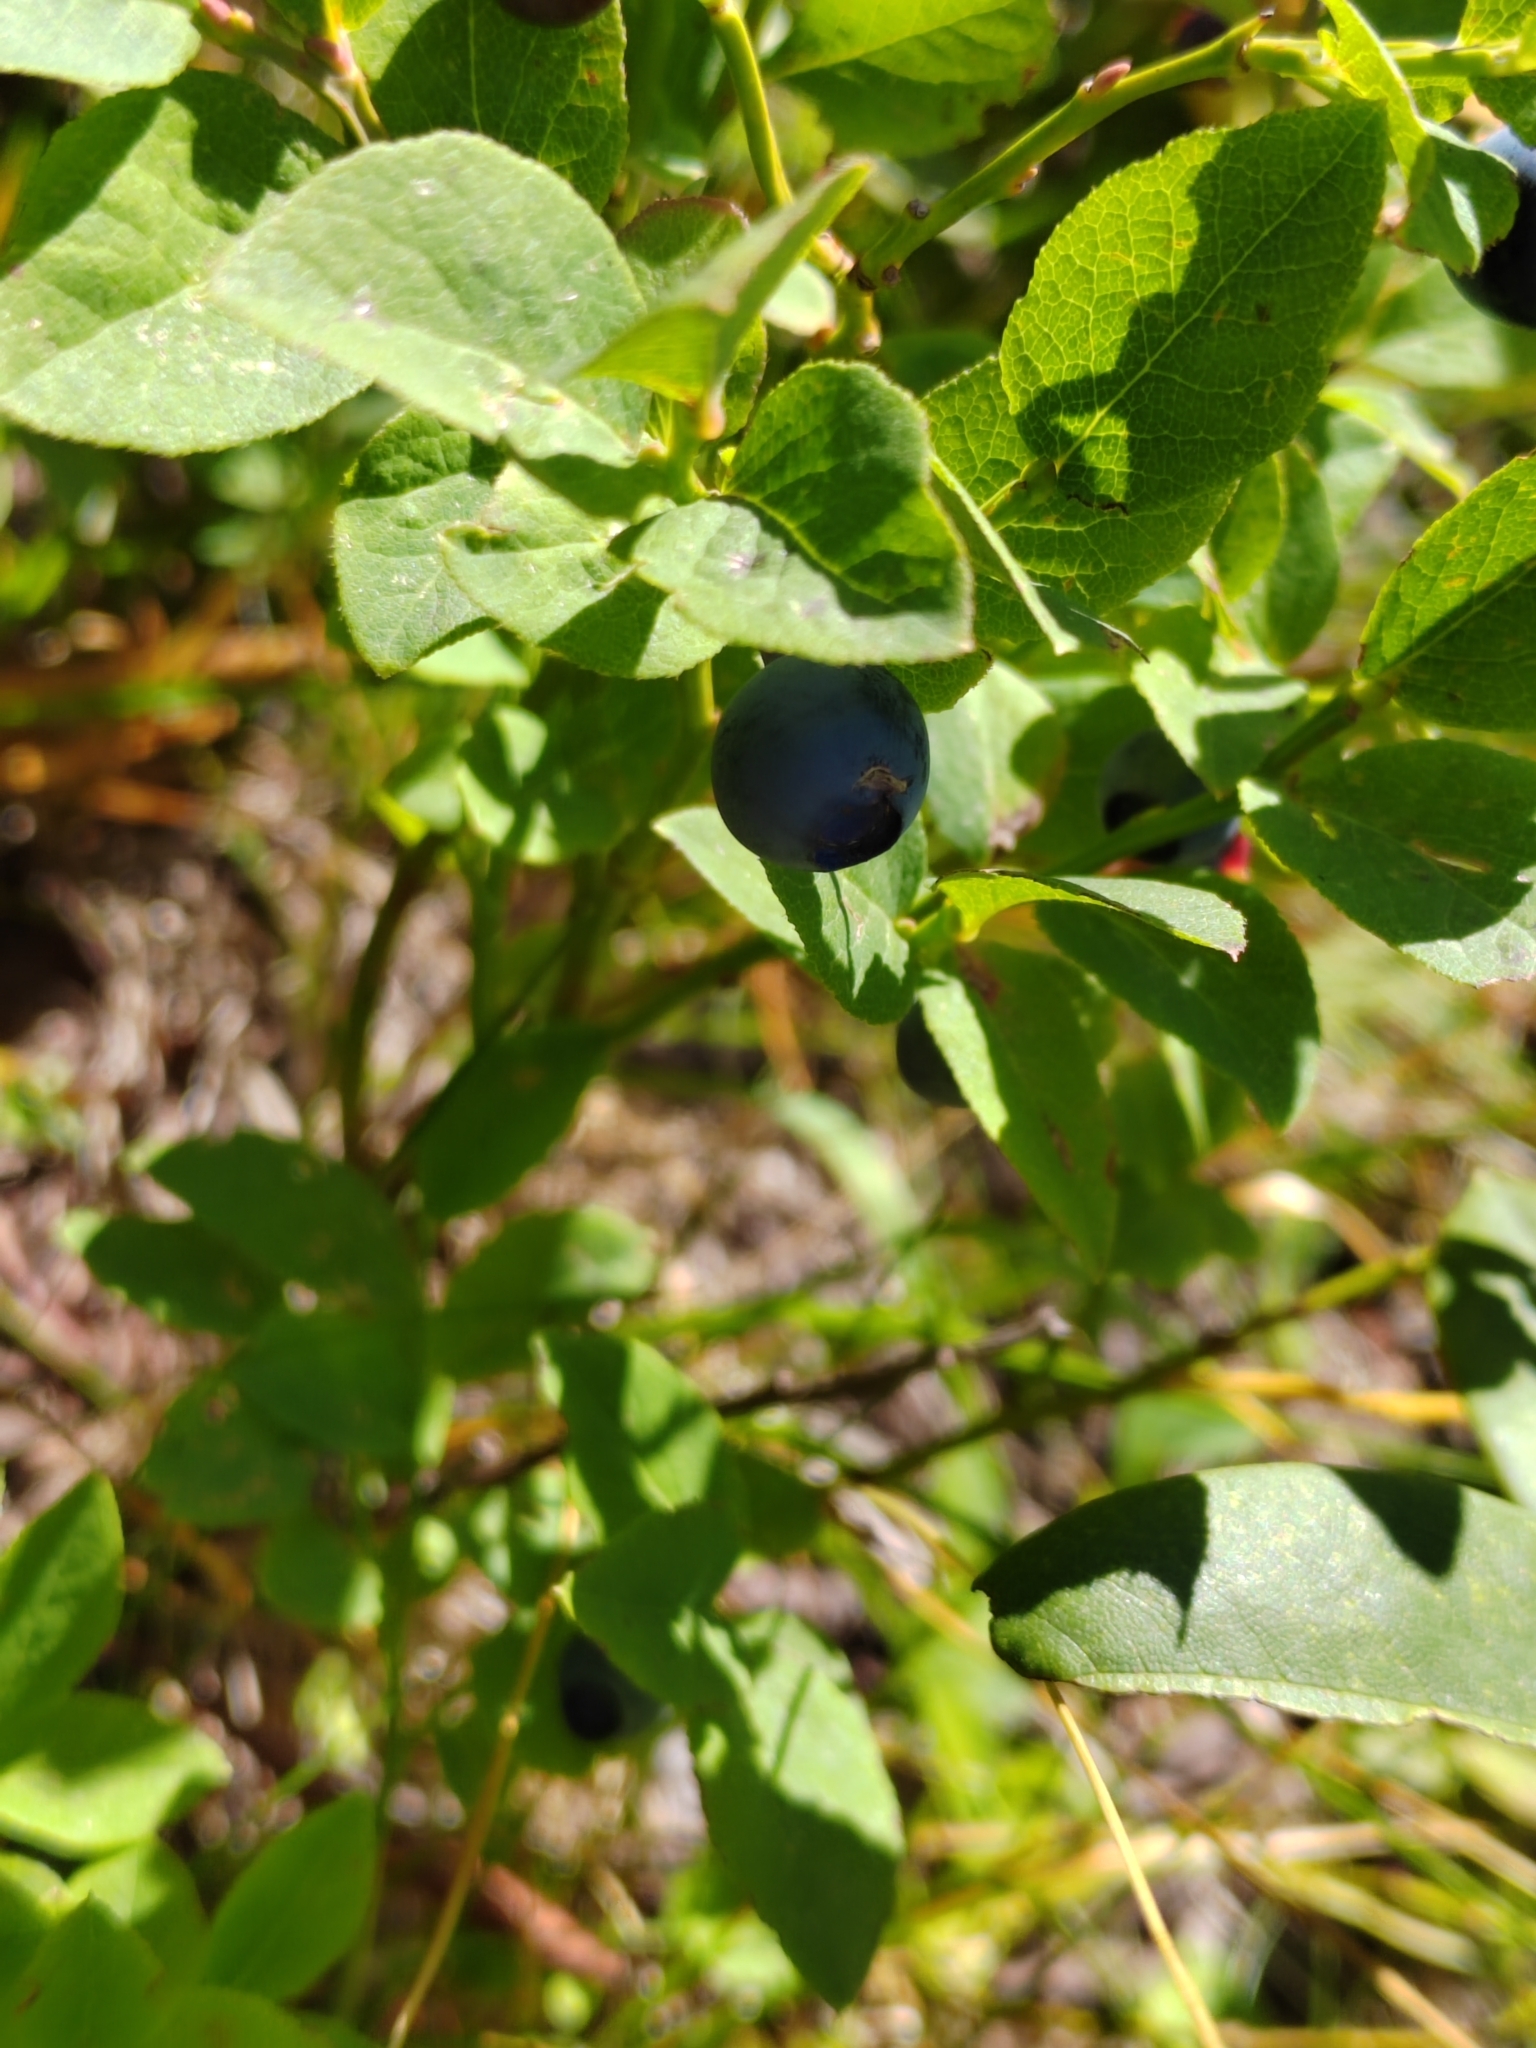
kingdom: Plantae
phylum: Tracheophyta
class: Magnoliopsida
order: Ericales
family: Ericaceae
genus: Vaccinium
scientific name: Vaccinium myrtillus
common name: Bilberry
